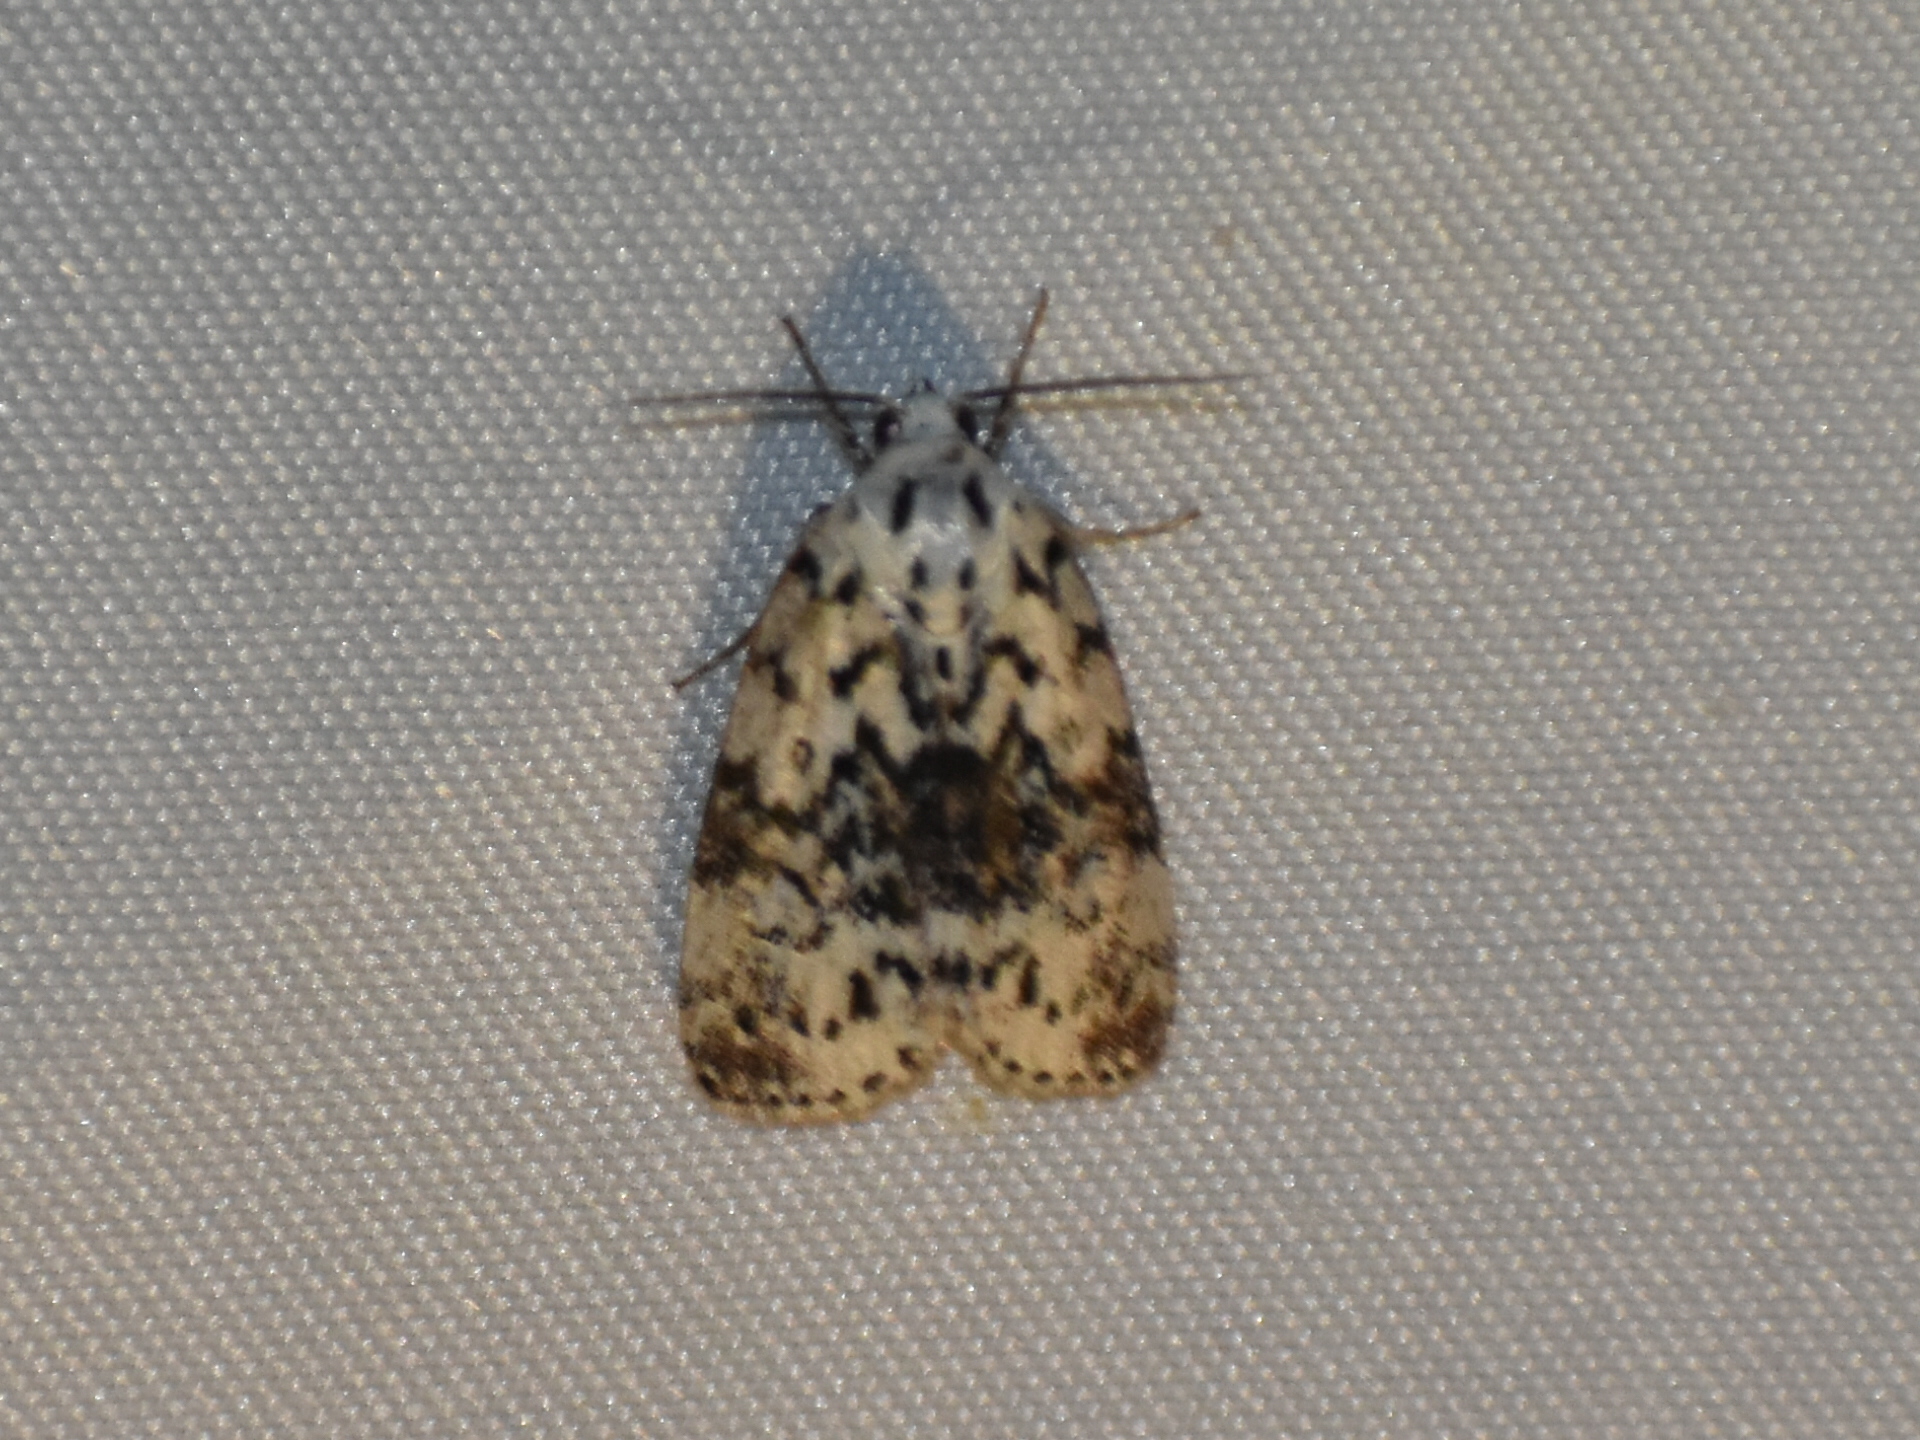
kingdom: Animalia
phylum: Arthropoda
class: Insecta
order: Lepidoptera
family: Noctuidae
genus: Polygrammate
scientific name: Polygrammate hebraeicum
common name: Hebrew moth
